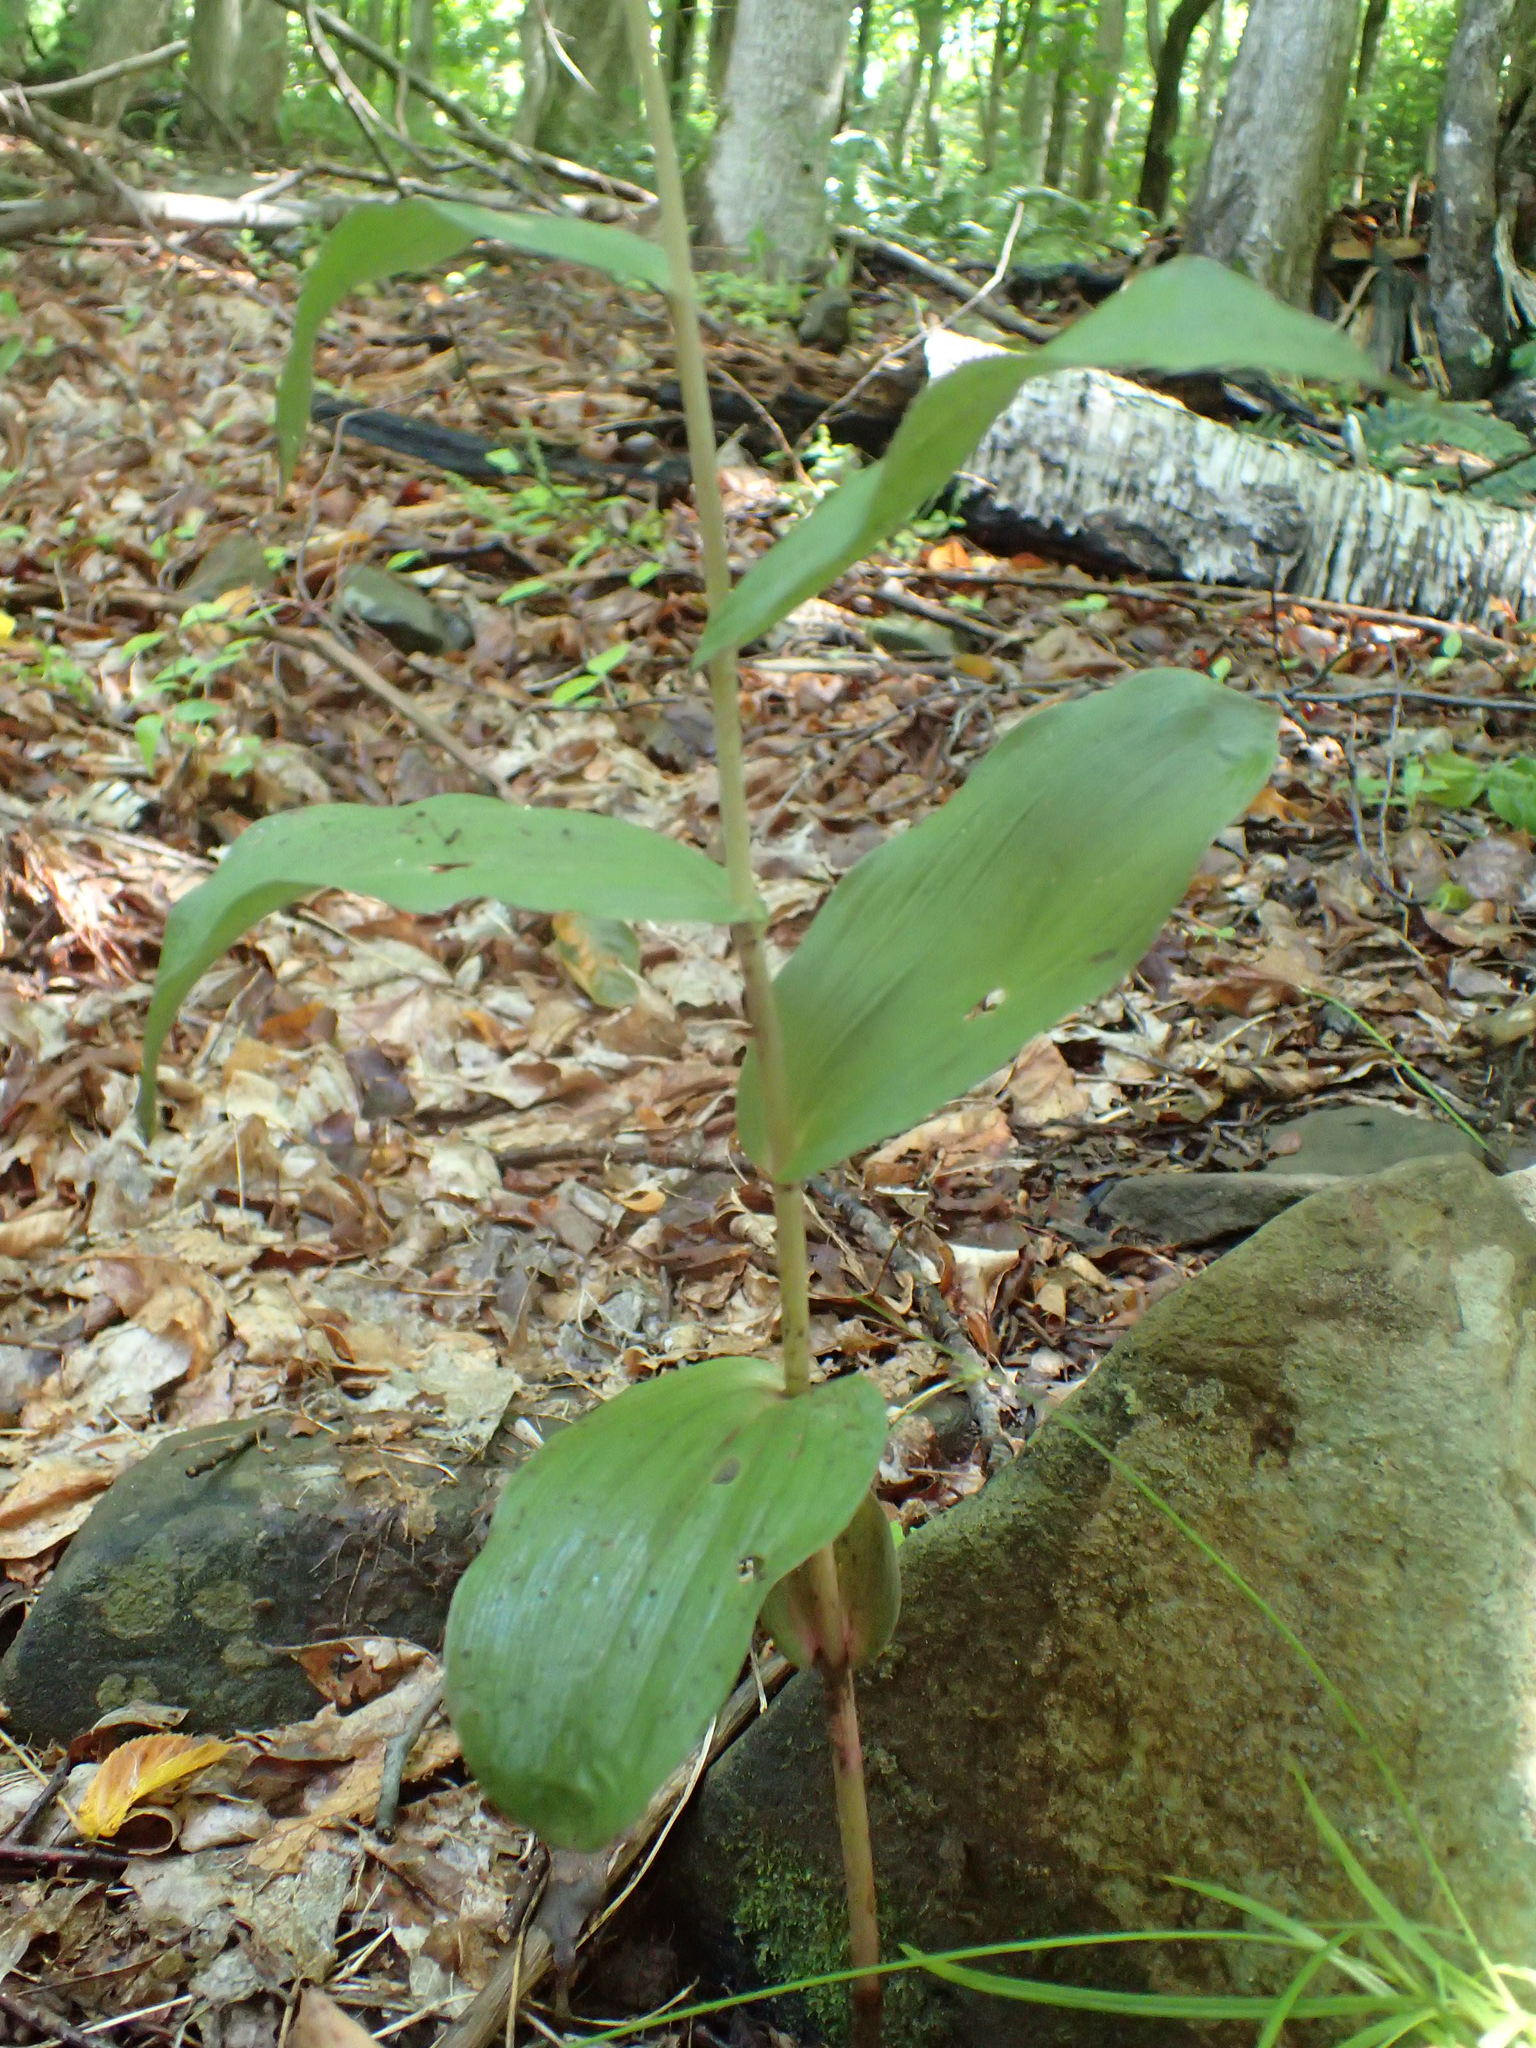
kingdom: Plantae
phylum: Tracheophyta
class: Liliopsida
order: Asparagales
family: Orchidaceae
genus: Epipactis
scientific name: Epipactis helleborine
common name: Broad-leaved helleborine
